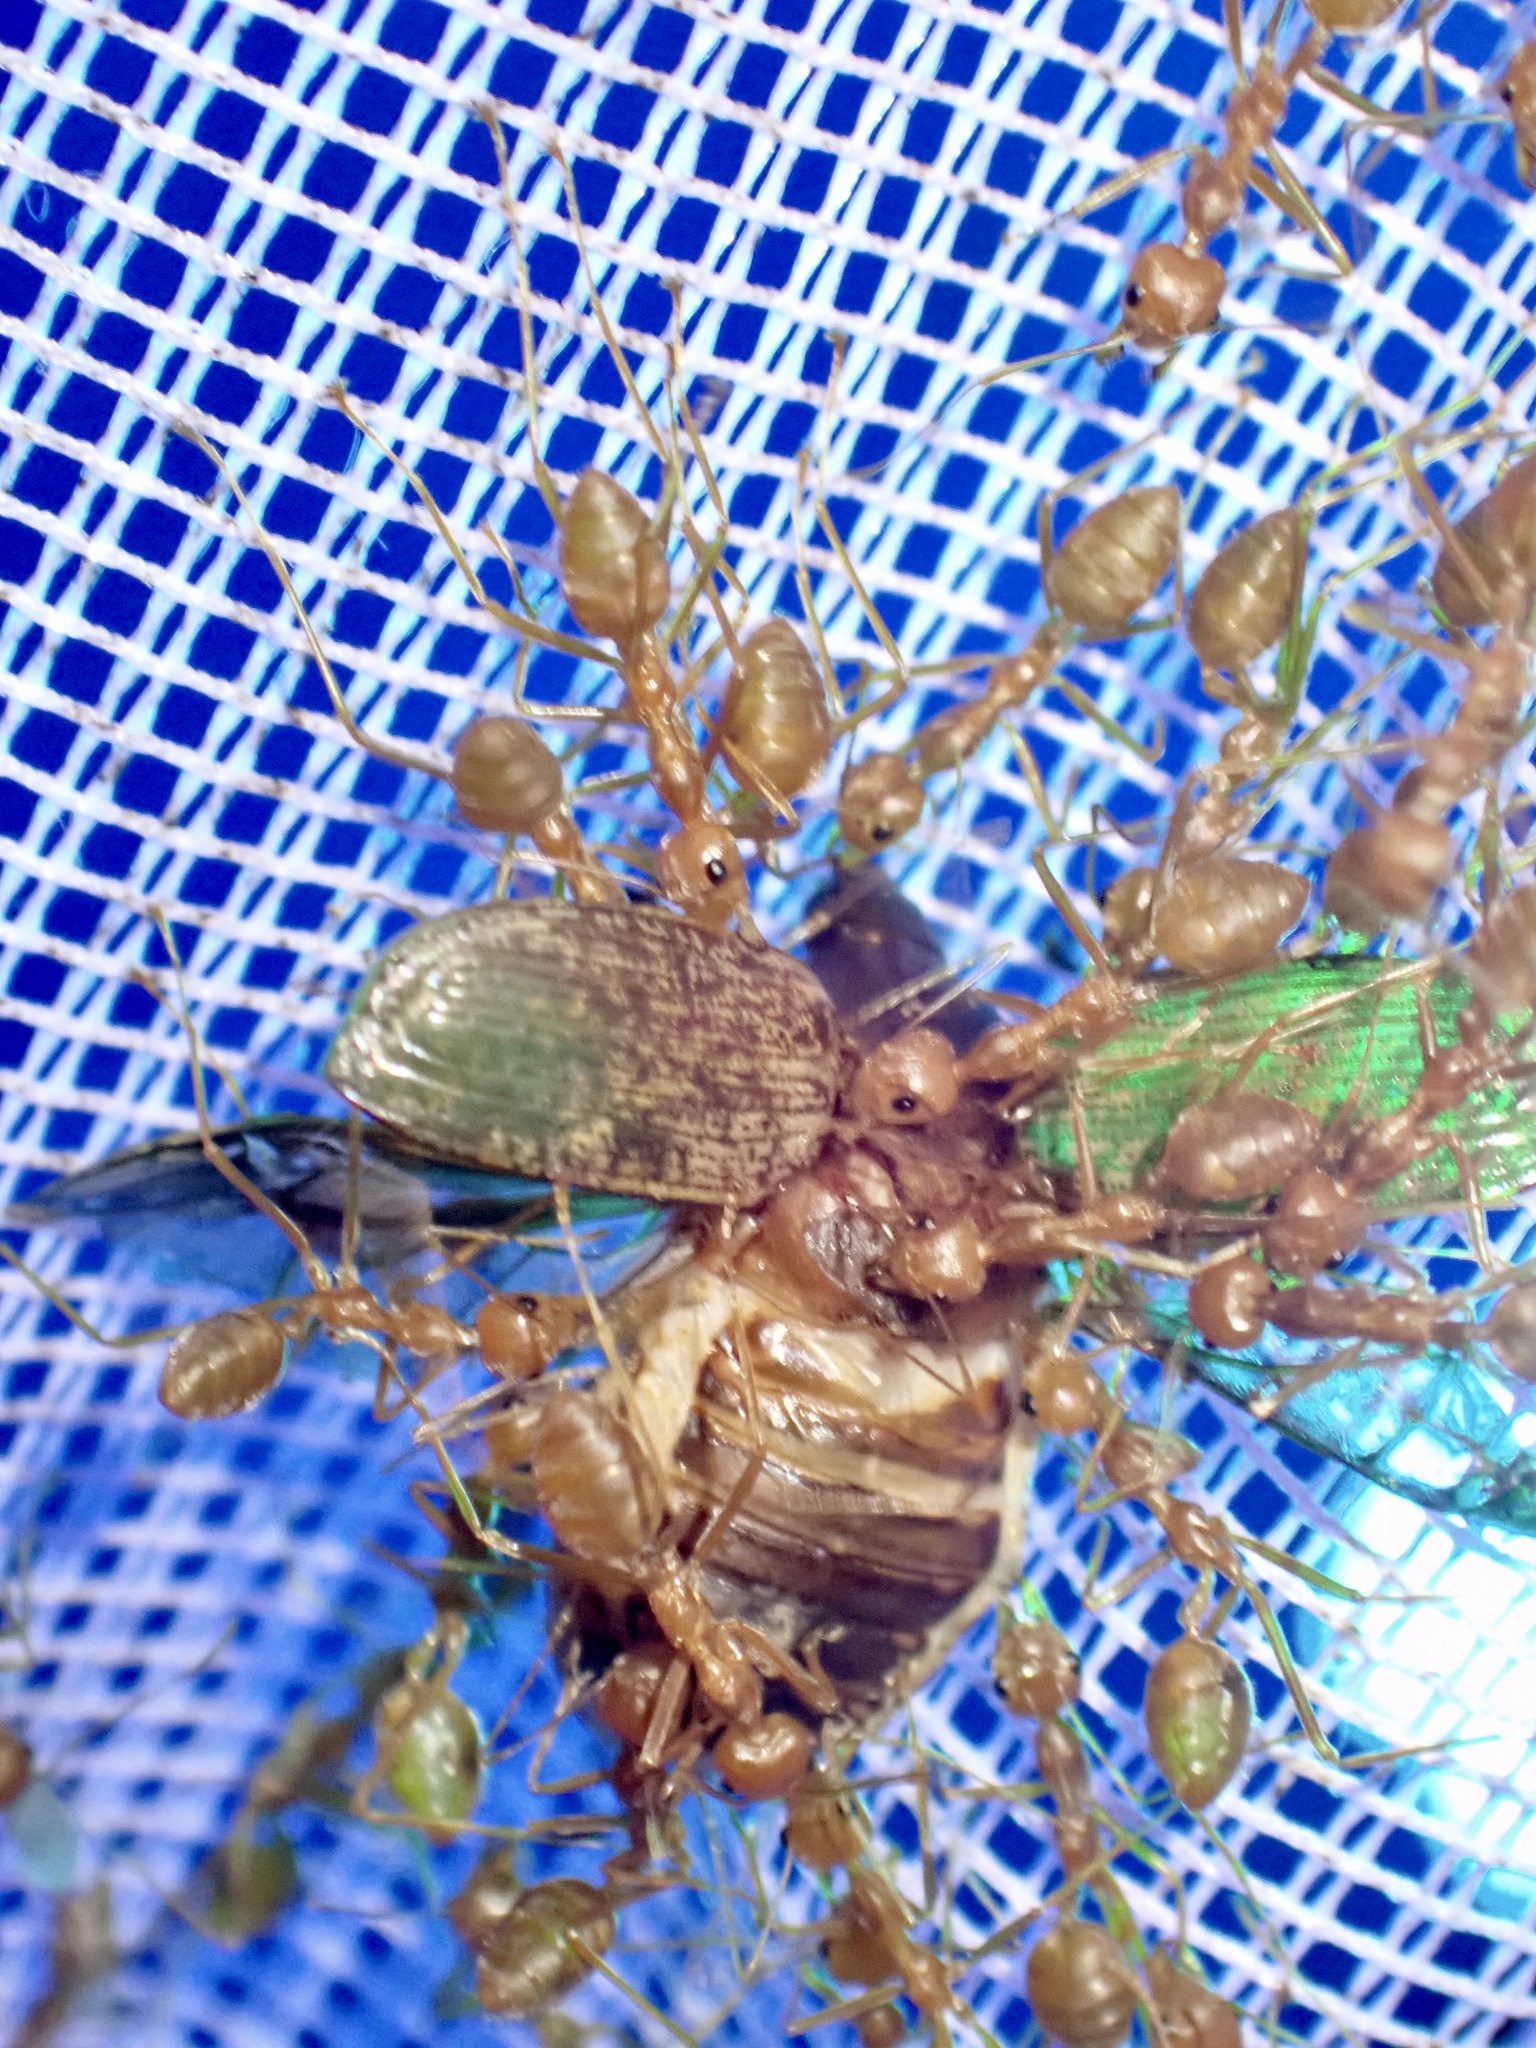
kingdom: Animalia
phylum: Arthropoda
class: Insecta
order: Hymenoptera
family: Formicidae
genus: Oecophylla
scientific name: Oecophylla smaragdina
